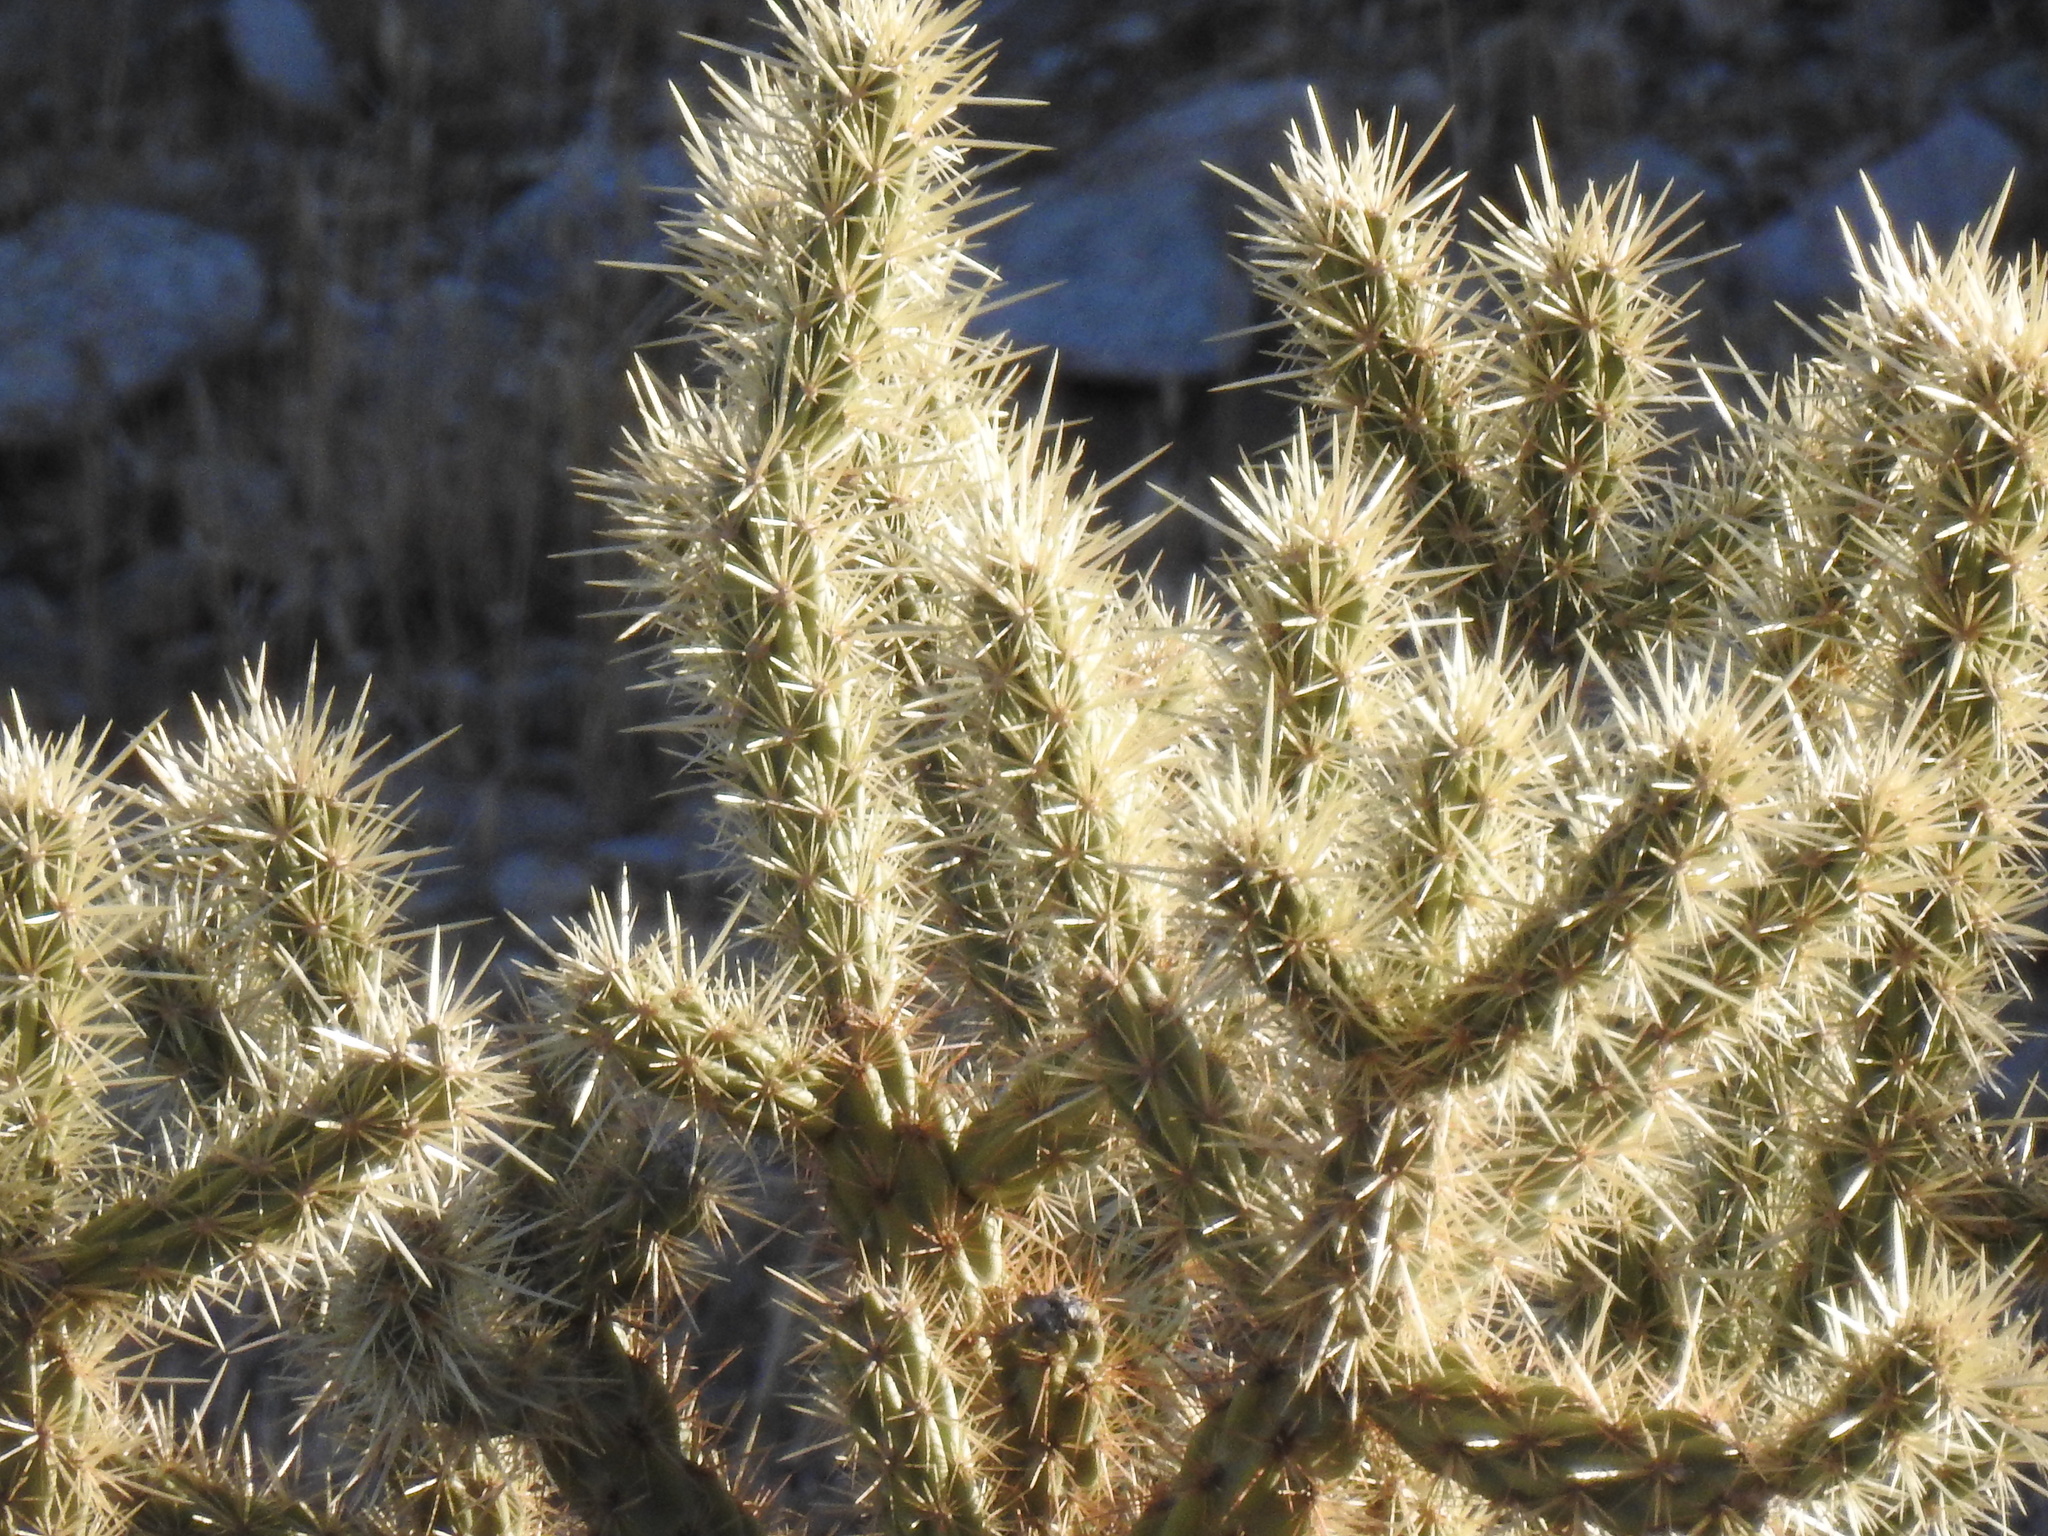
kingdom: Plantae
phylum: Tracheophyta
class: Magnoliopsida
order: Caryophyllales
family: Cactaceae
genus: Cylindropuntia
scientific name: Cylindropuntia acanthocarpa
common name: Buckhorn cholla
